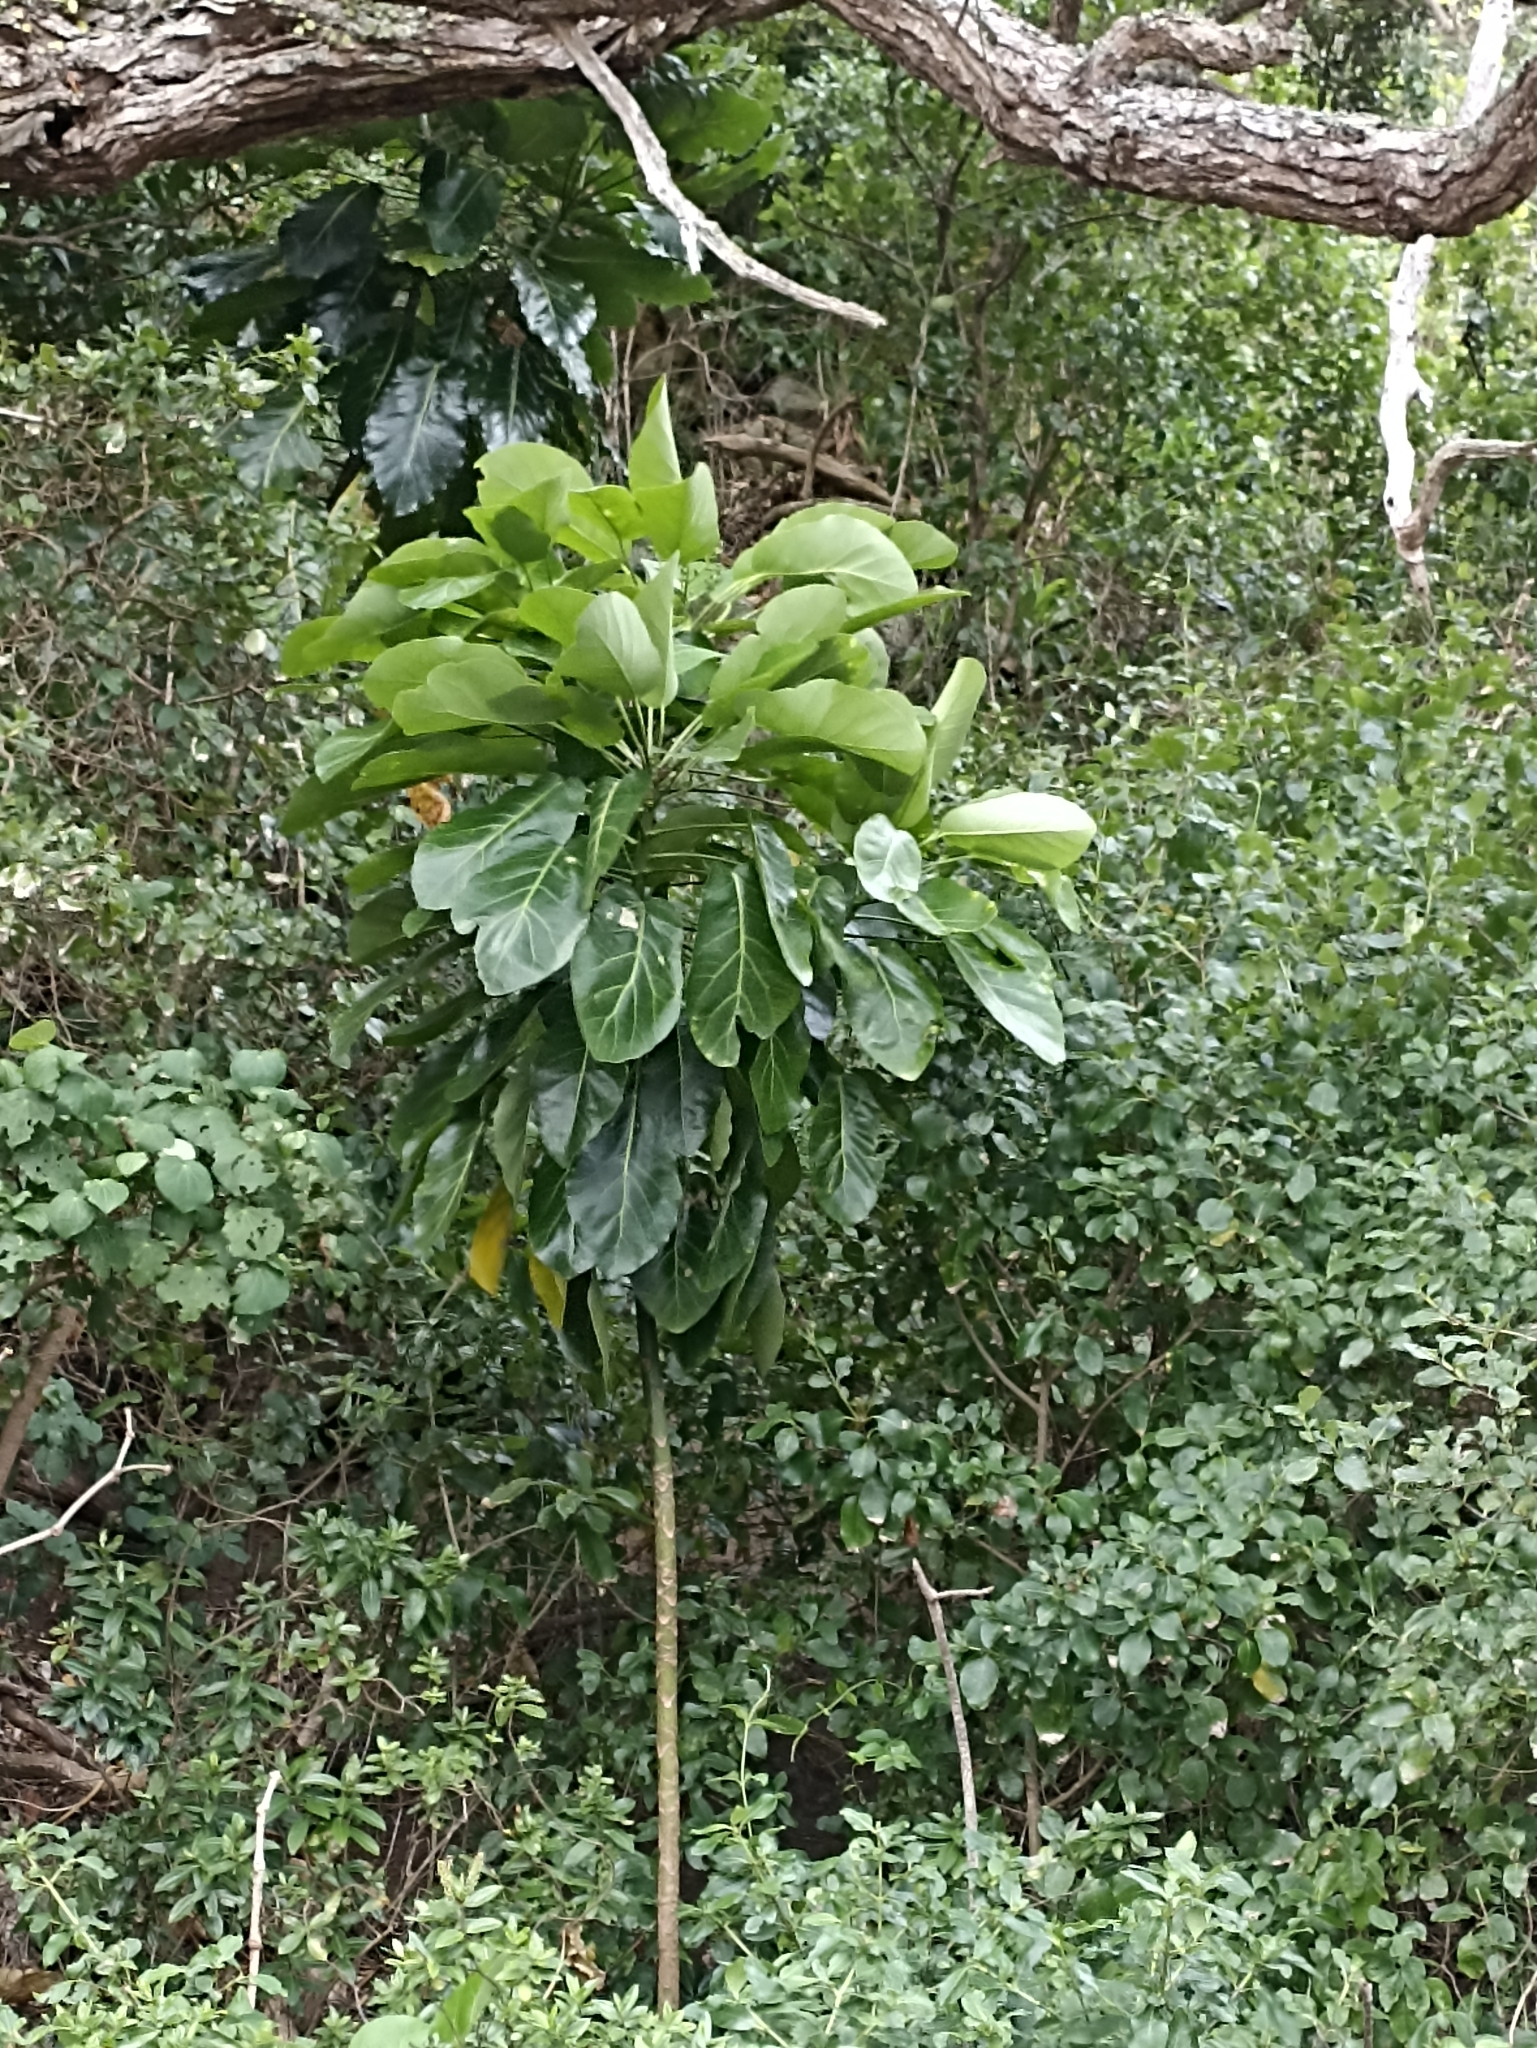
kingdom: Plantae
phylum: Tracheophyta
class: Magnoliopsida
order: Apiales
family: Araliaceae
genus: Meryta
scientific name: Meryta sinclairii
